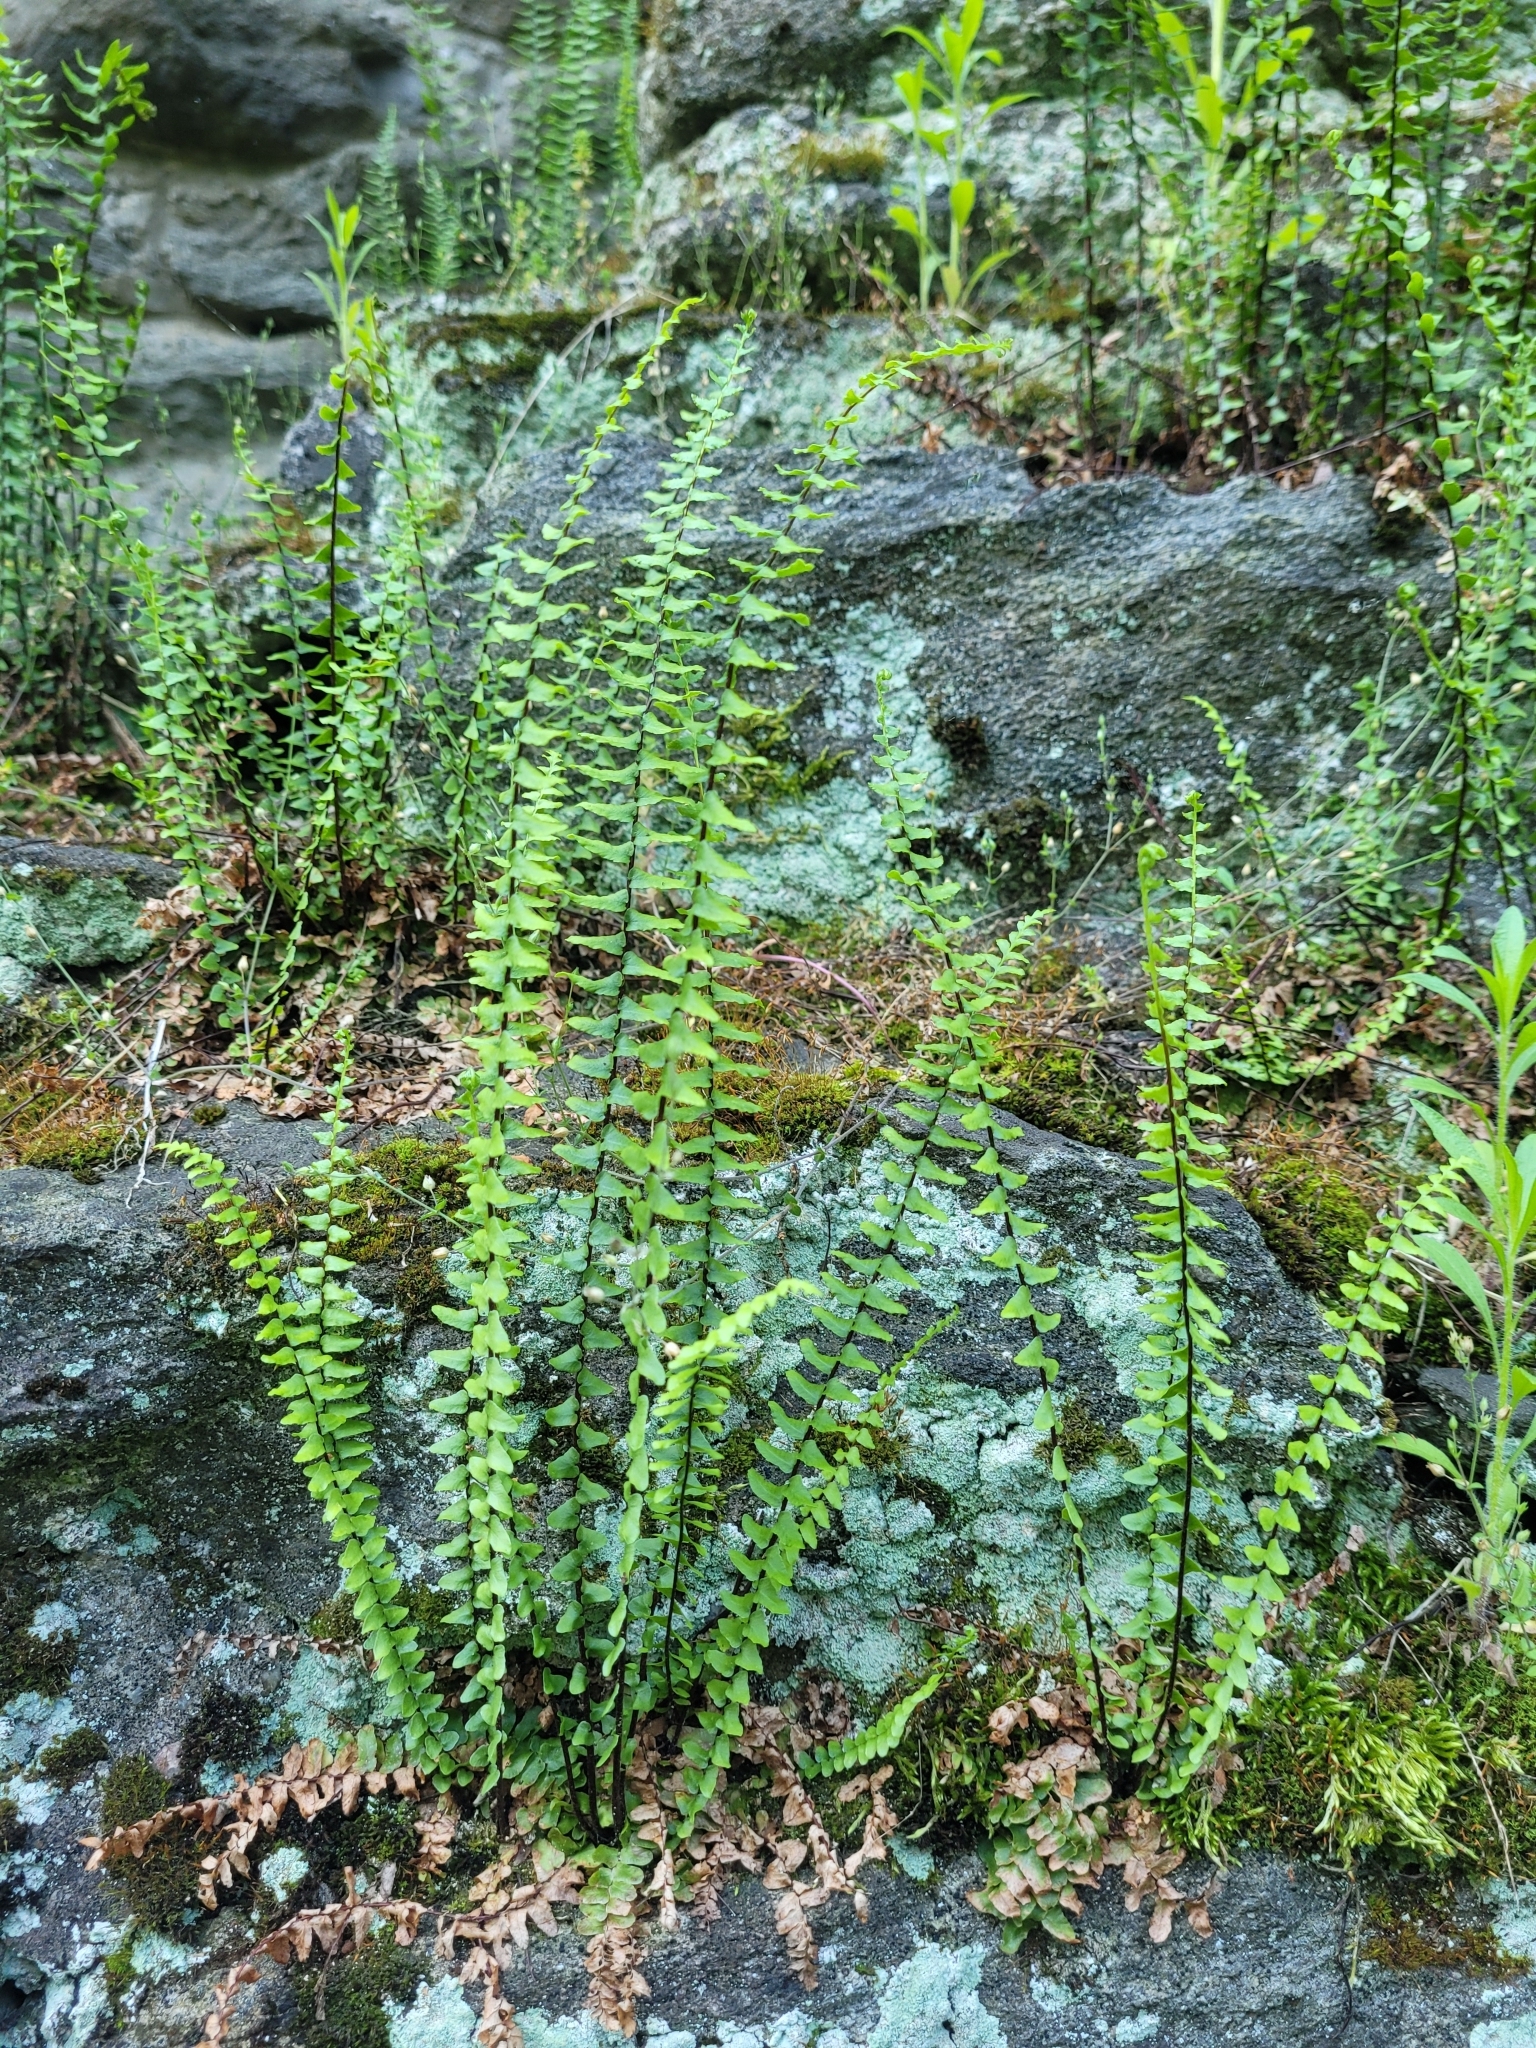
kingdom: Plantae
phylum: Tracheophyta
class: Polypodiopsida
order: Polypodiales
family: Aspleniaceae
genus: Asplenium
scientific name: Asplenium platyneuron
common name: Ebony spleenwort
